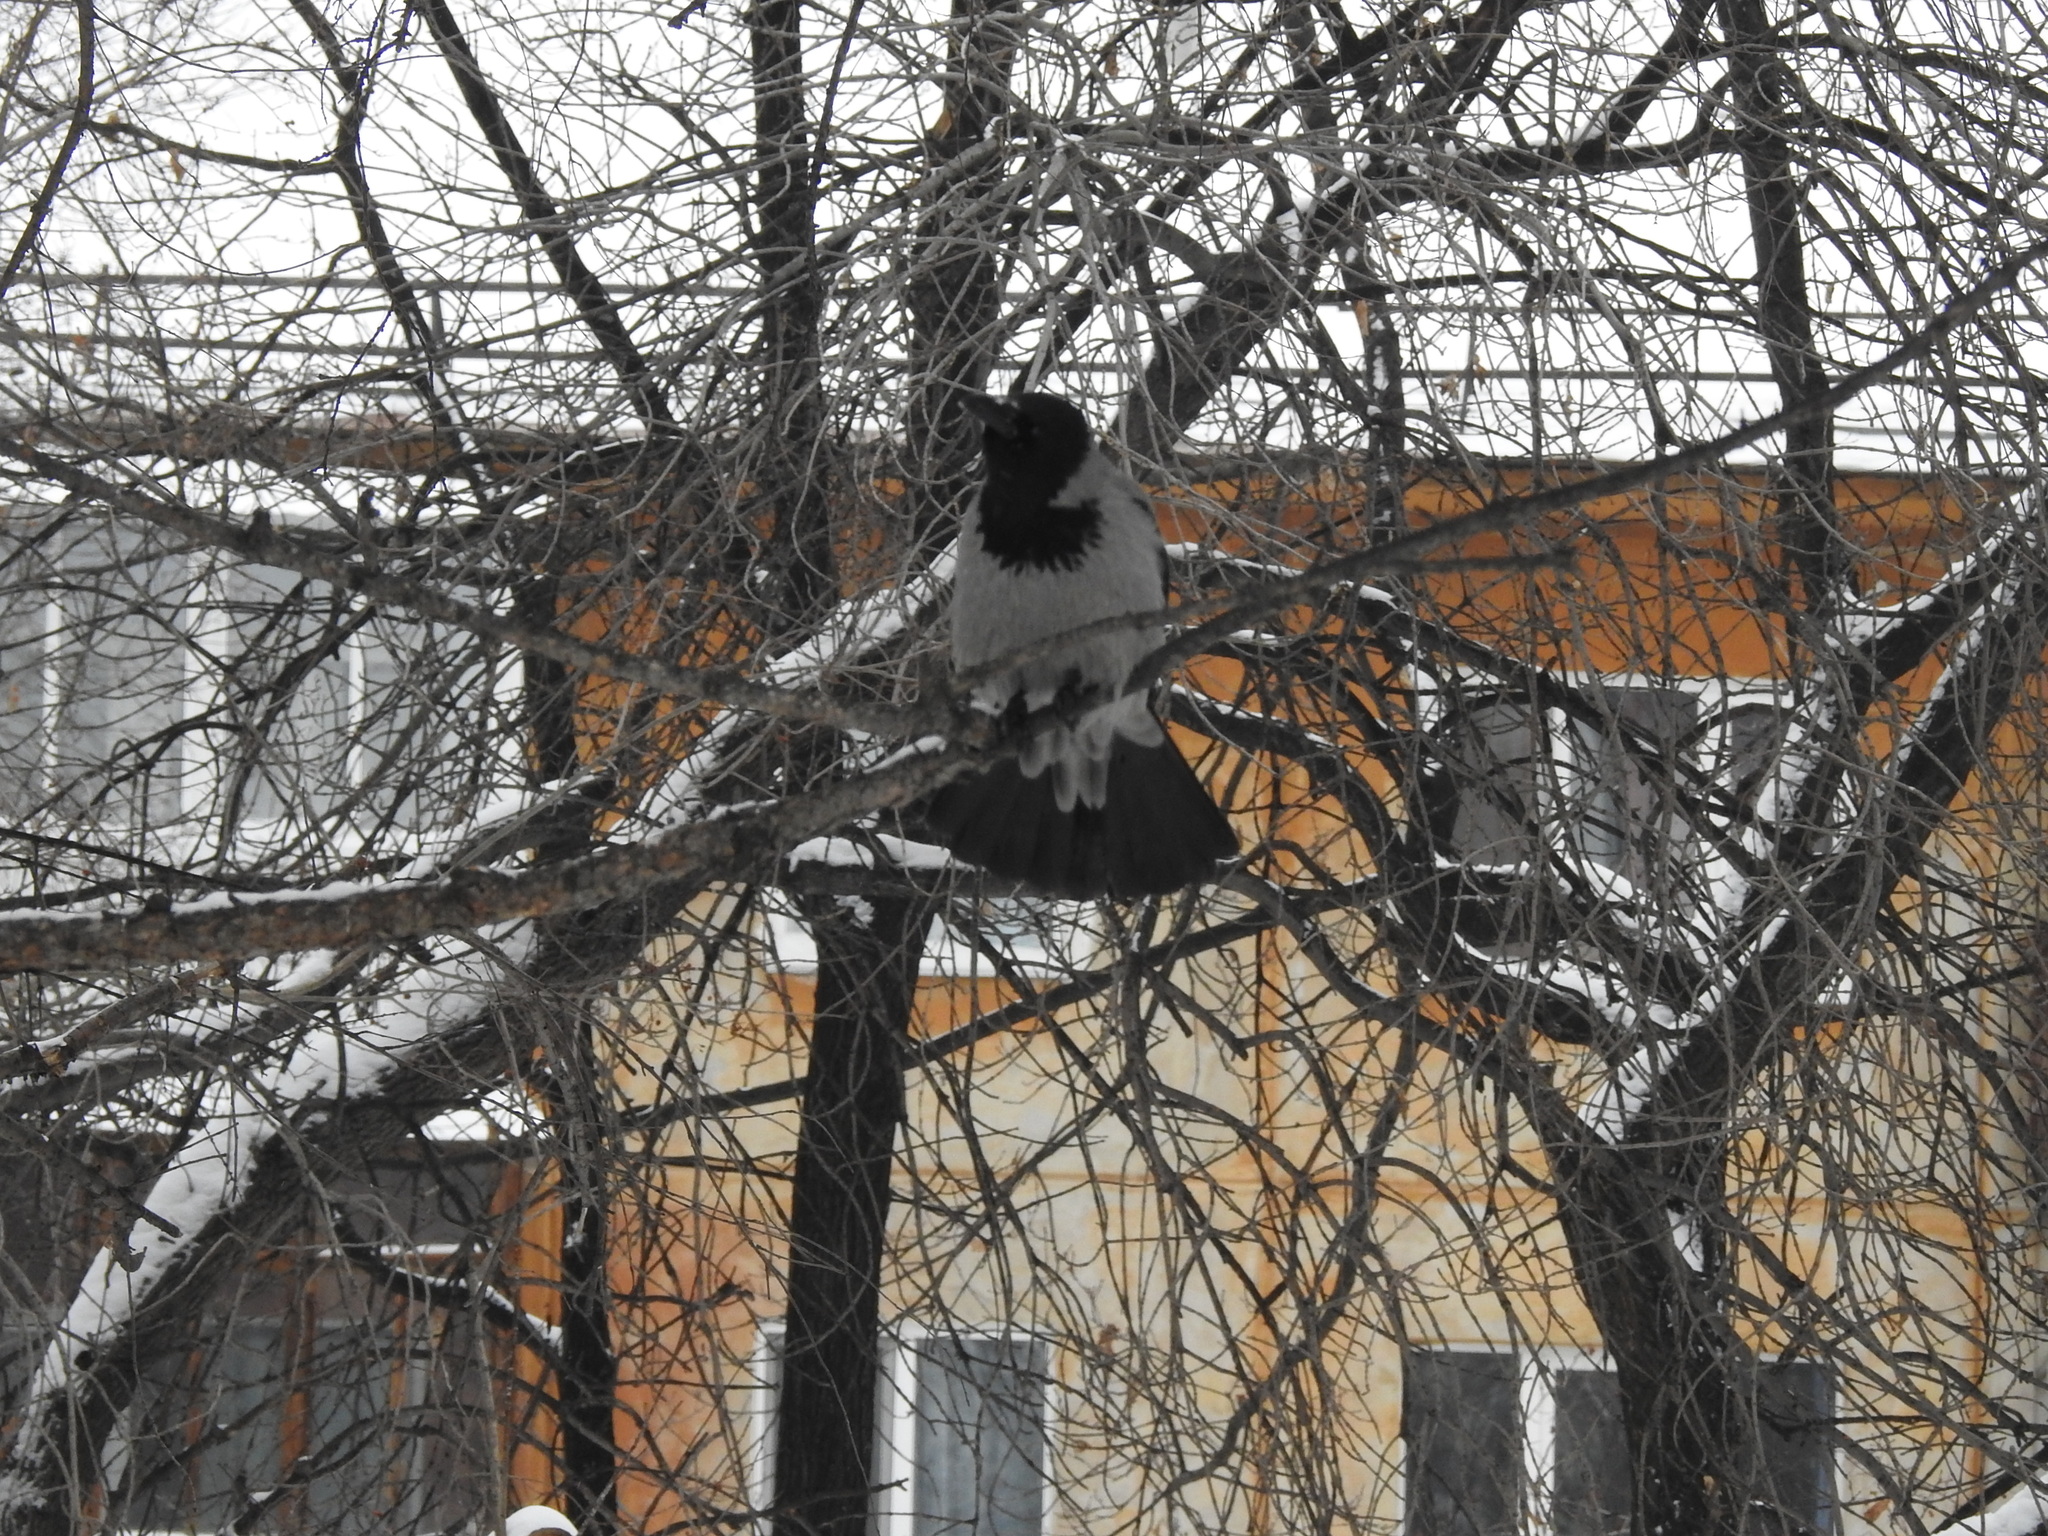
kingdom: Animalia
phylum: Chordata
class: Aves
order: Passeriformes
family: Corvidae
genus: Corvus
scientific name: Corvus cornix
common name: Hooded crow
